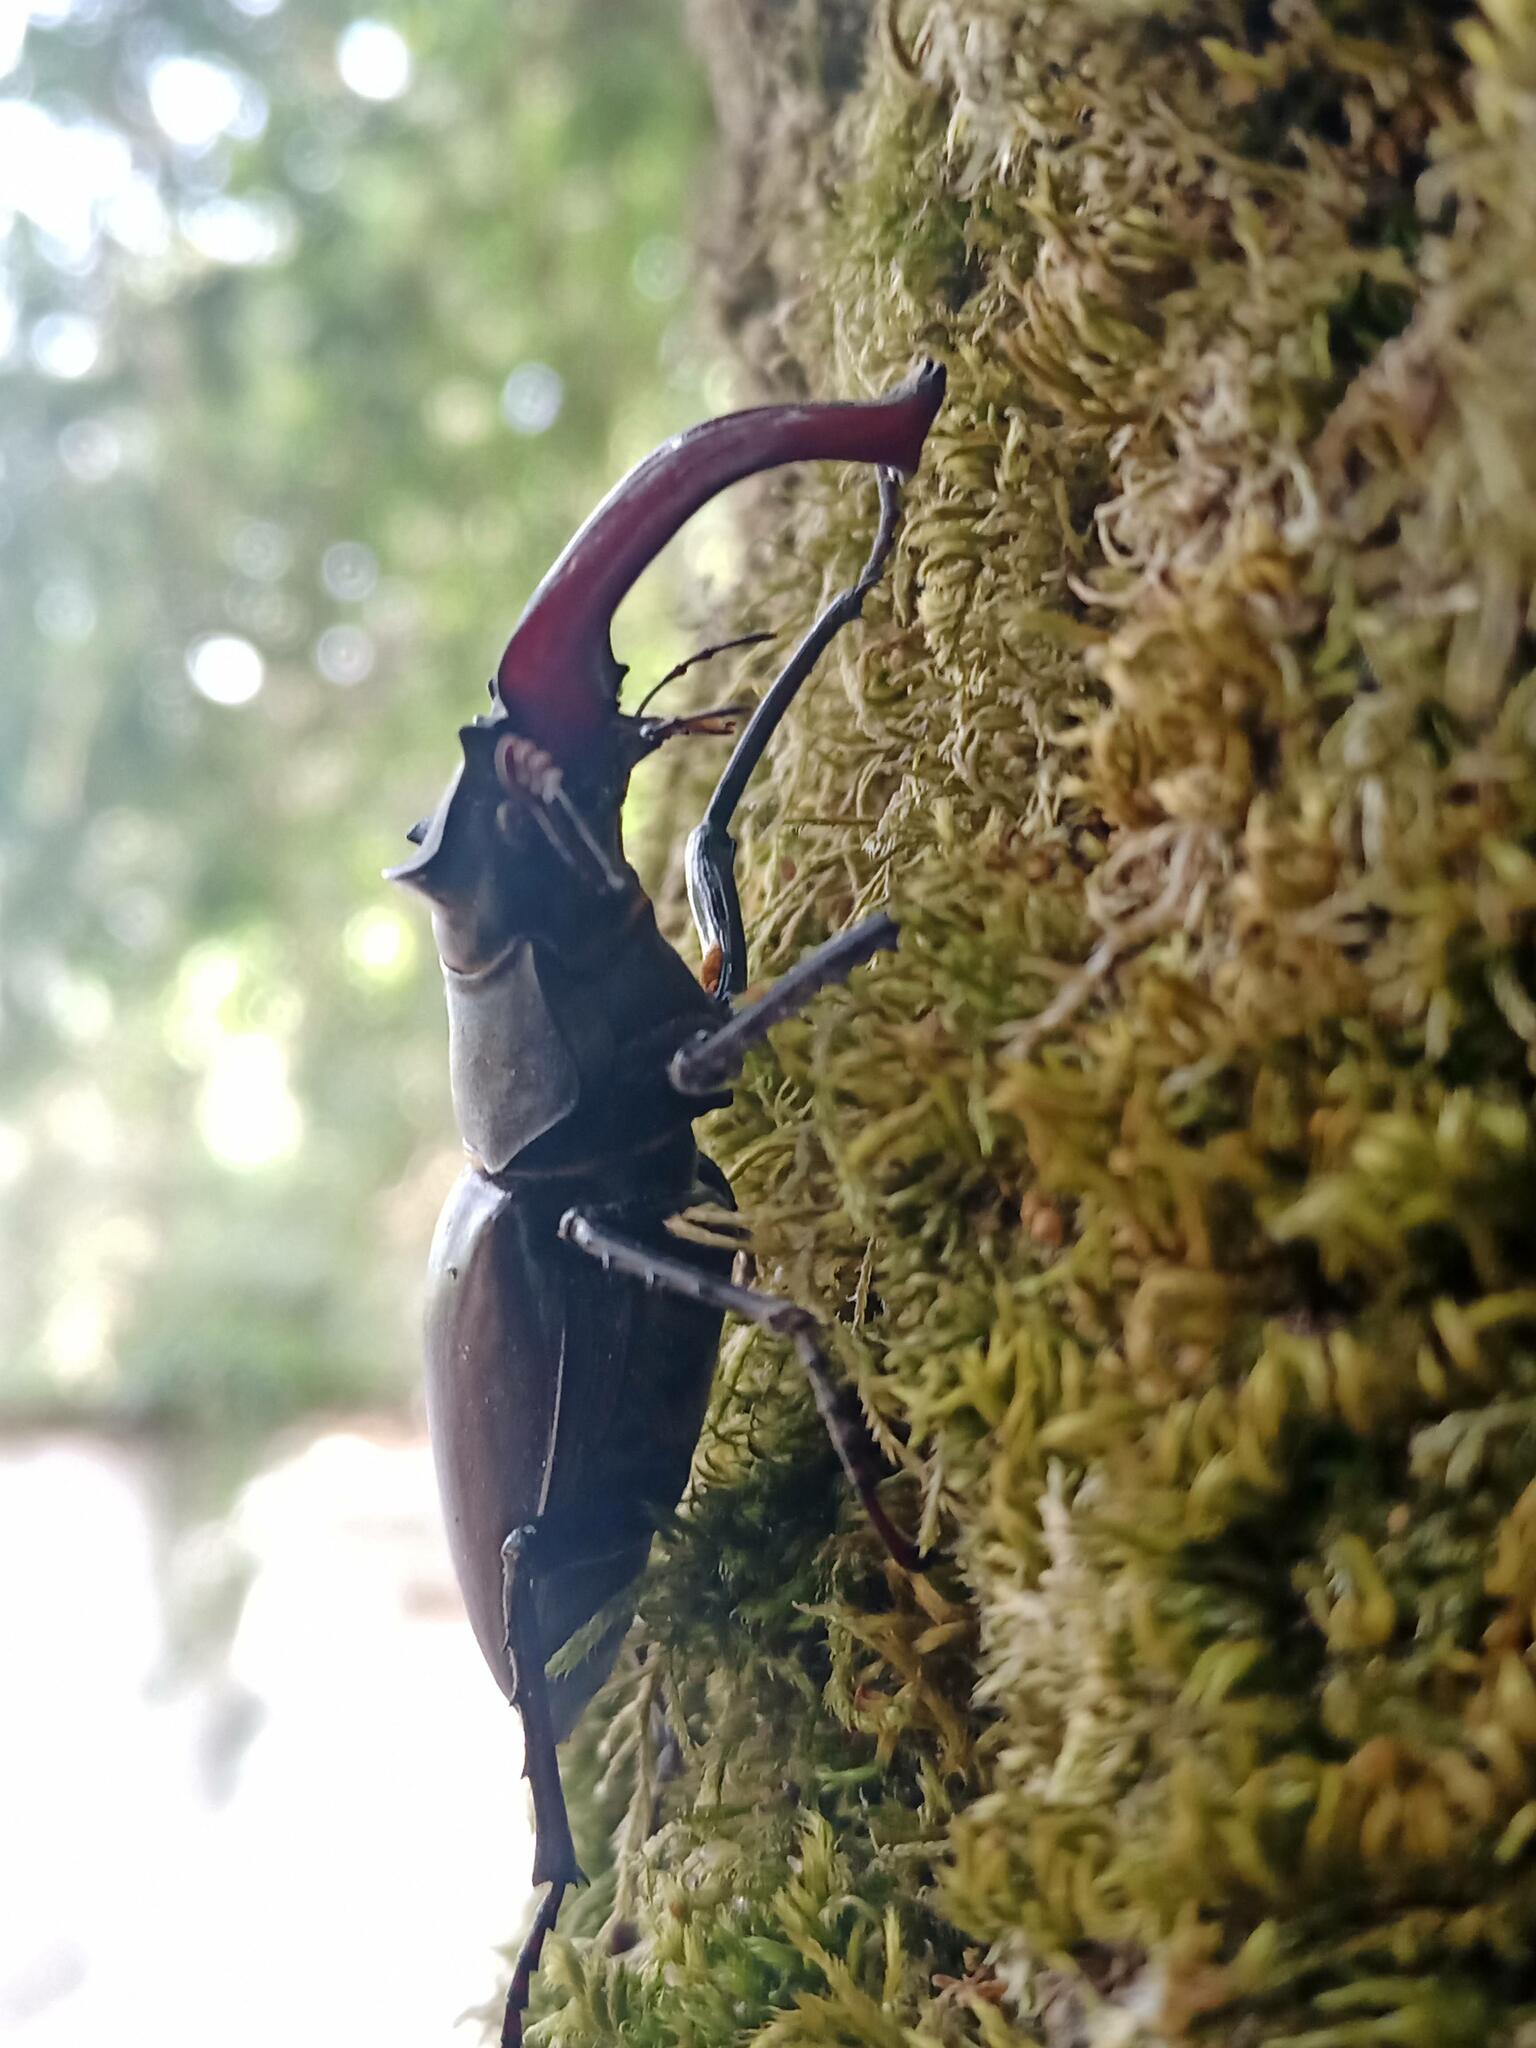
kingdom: Animalia
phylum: Arthropoda
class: Insecta
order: Coleoptera
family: Lucanidae
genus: Lucanus
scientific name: Lucanus cervus
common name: Stag beetle
